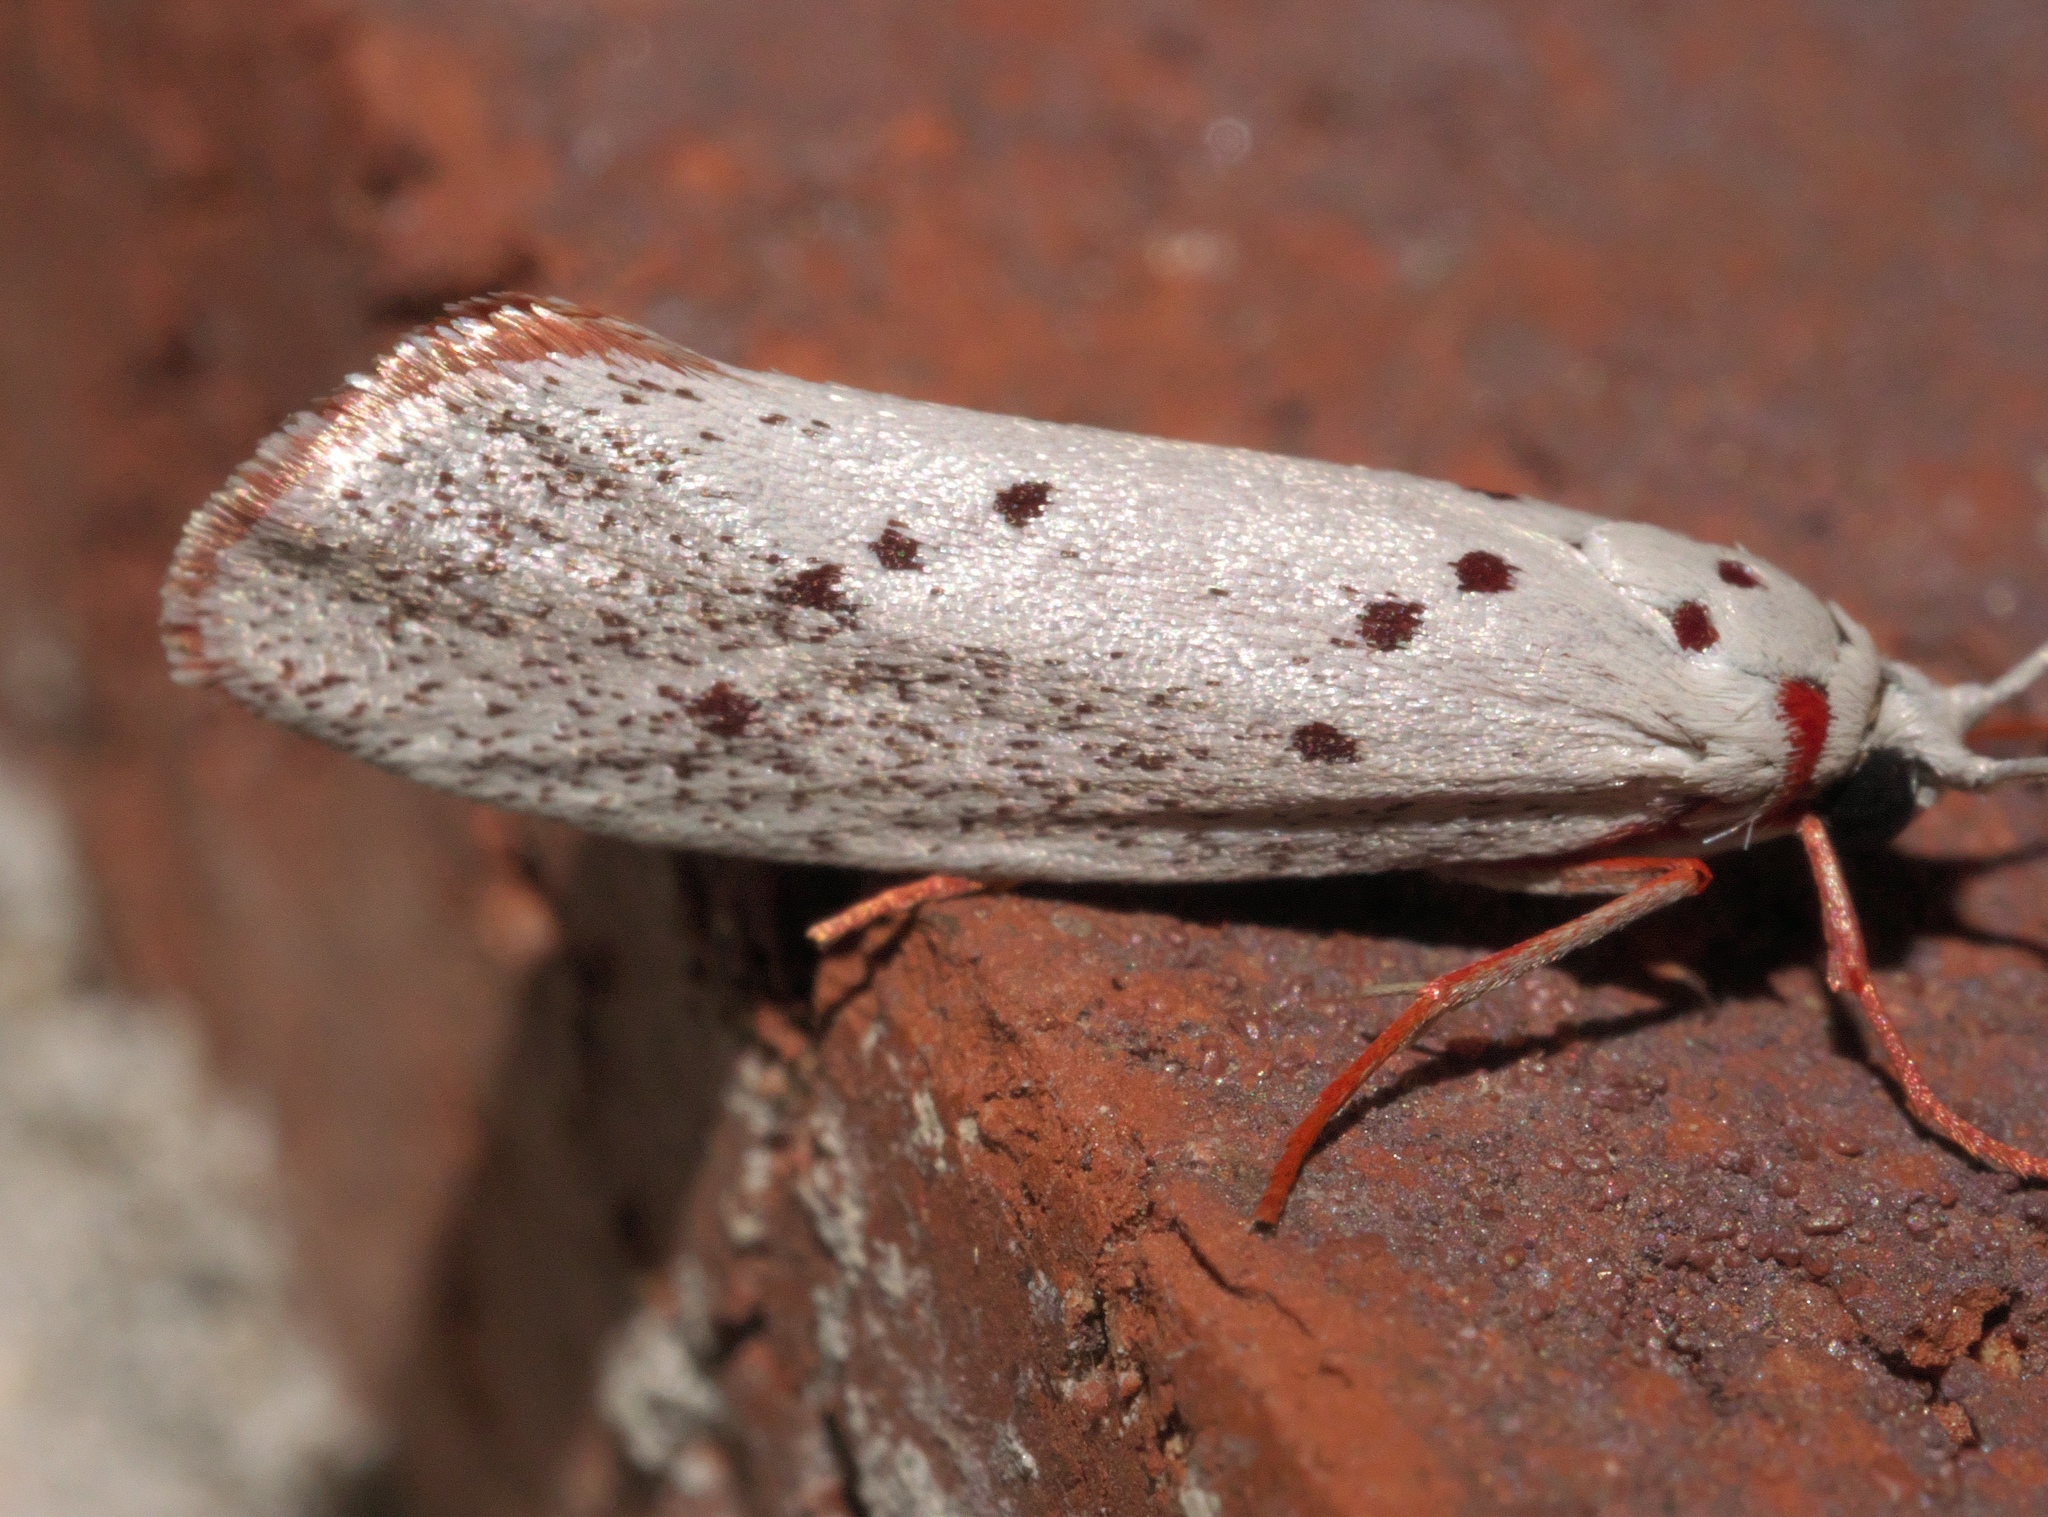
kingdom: Animalia
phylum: Arthropoda
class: Insecta
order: Lepidoptera
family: Lacturidae
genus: Lactura
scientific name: Lactura
